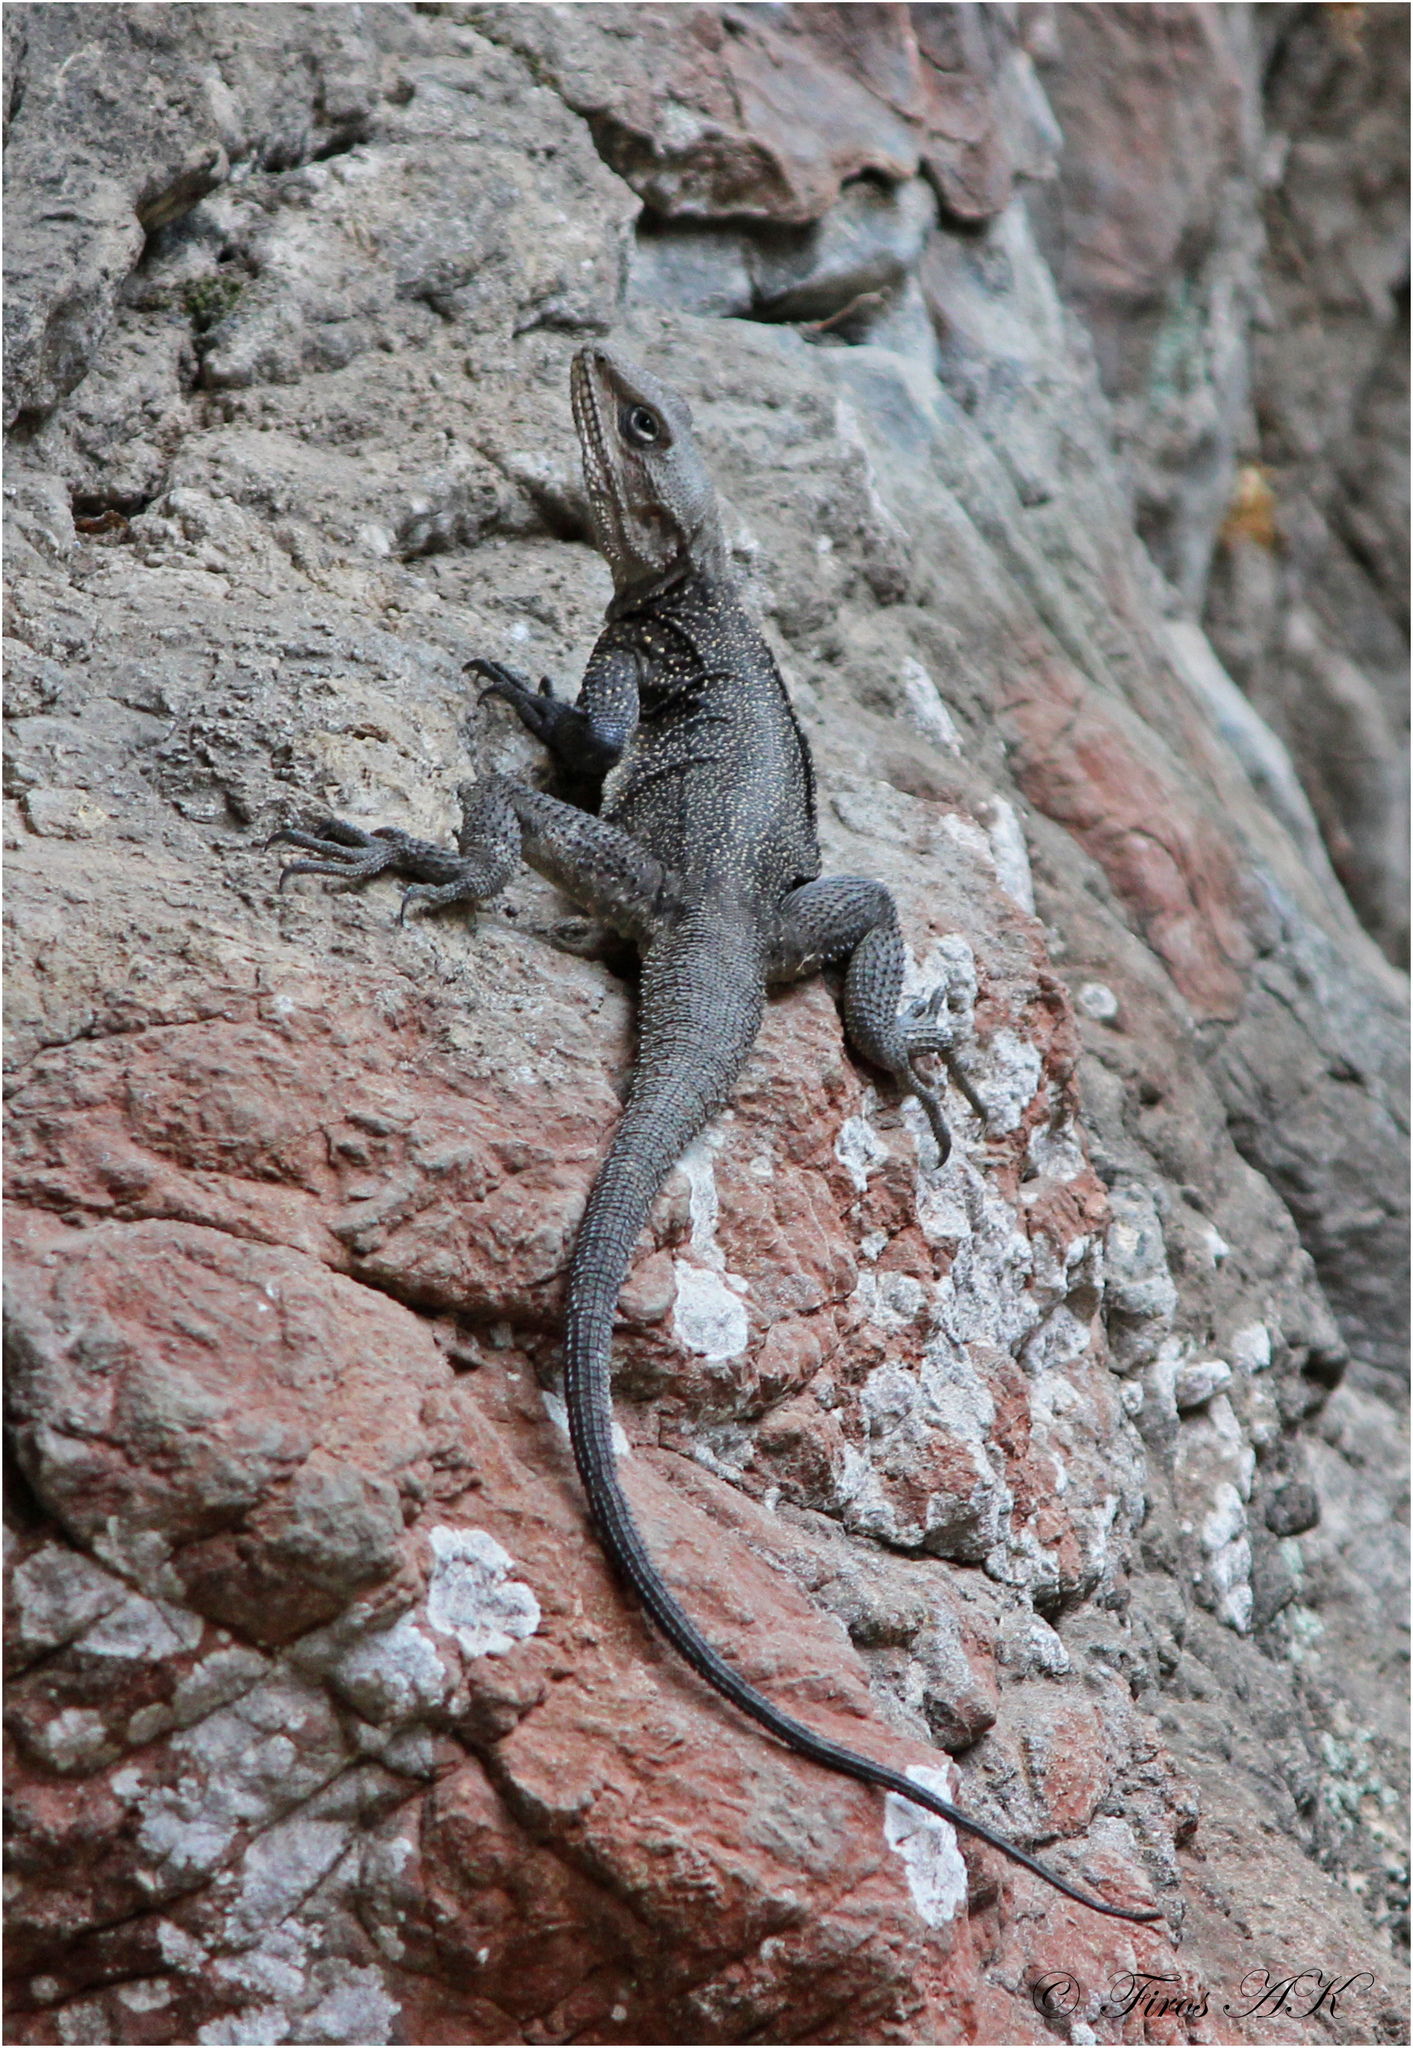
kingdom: Animalia
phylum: Chordata
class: Squamata
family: Agamidae
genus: Laudakia
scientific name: Laudakia tuberculata
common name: Kashmir rock agama
